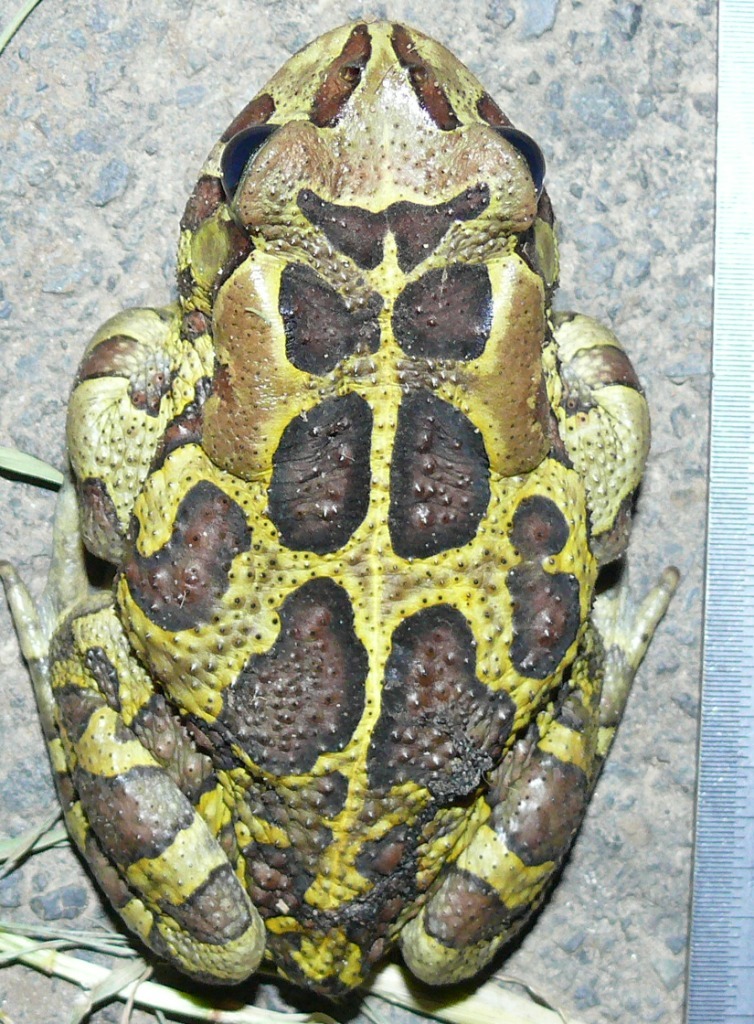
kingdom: Animalia
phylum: Chordata
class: Amphibia
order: Anura
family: Bufonidae
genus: Sclerophrys
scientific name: Sclerophrys pantherina
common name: Panther toad
